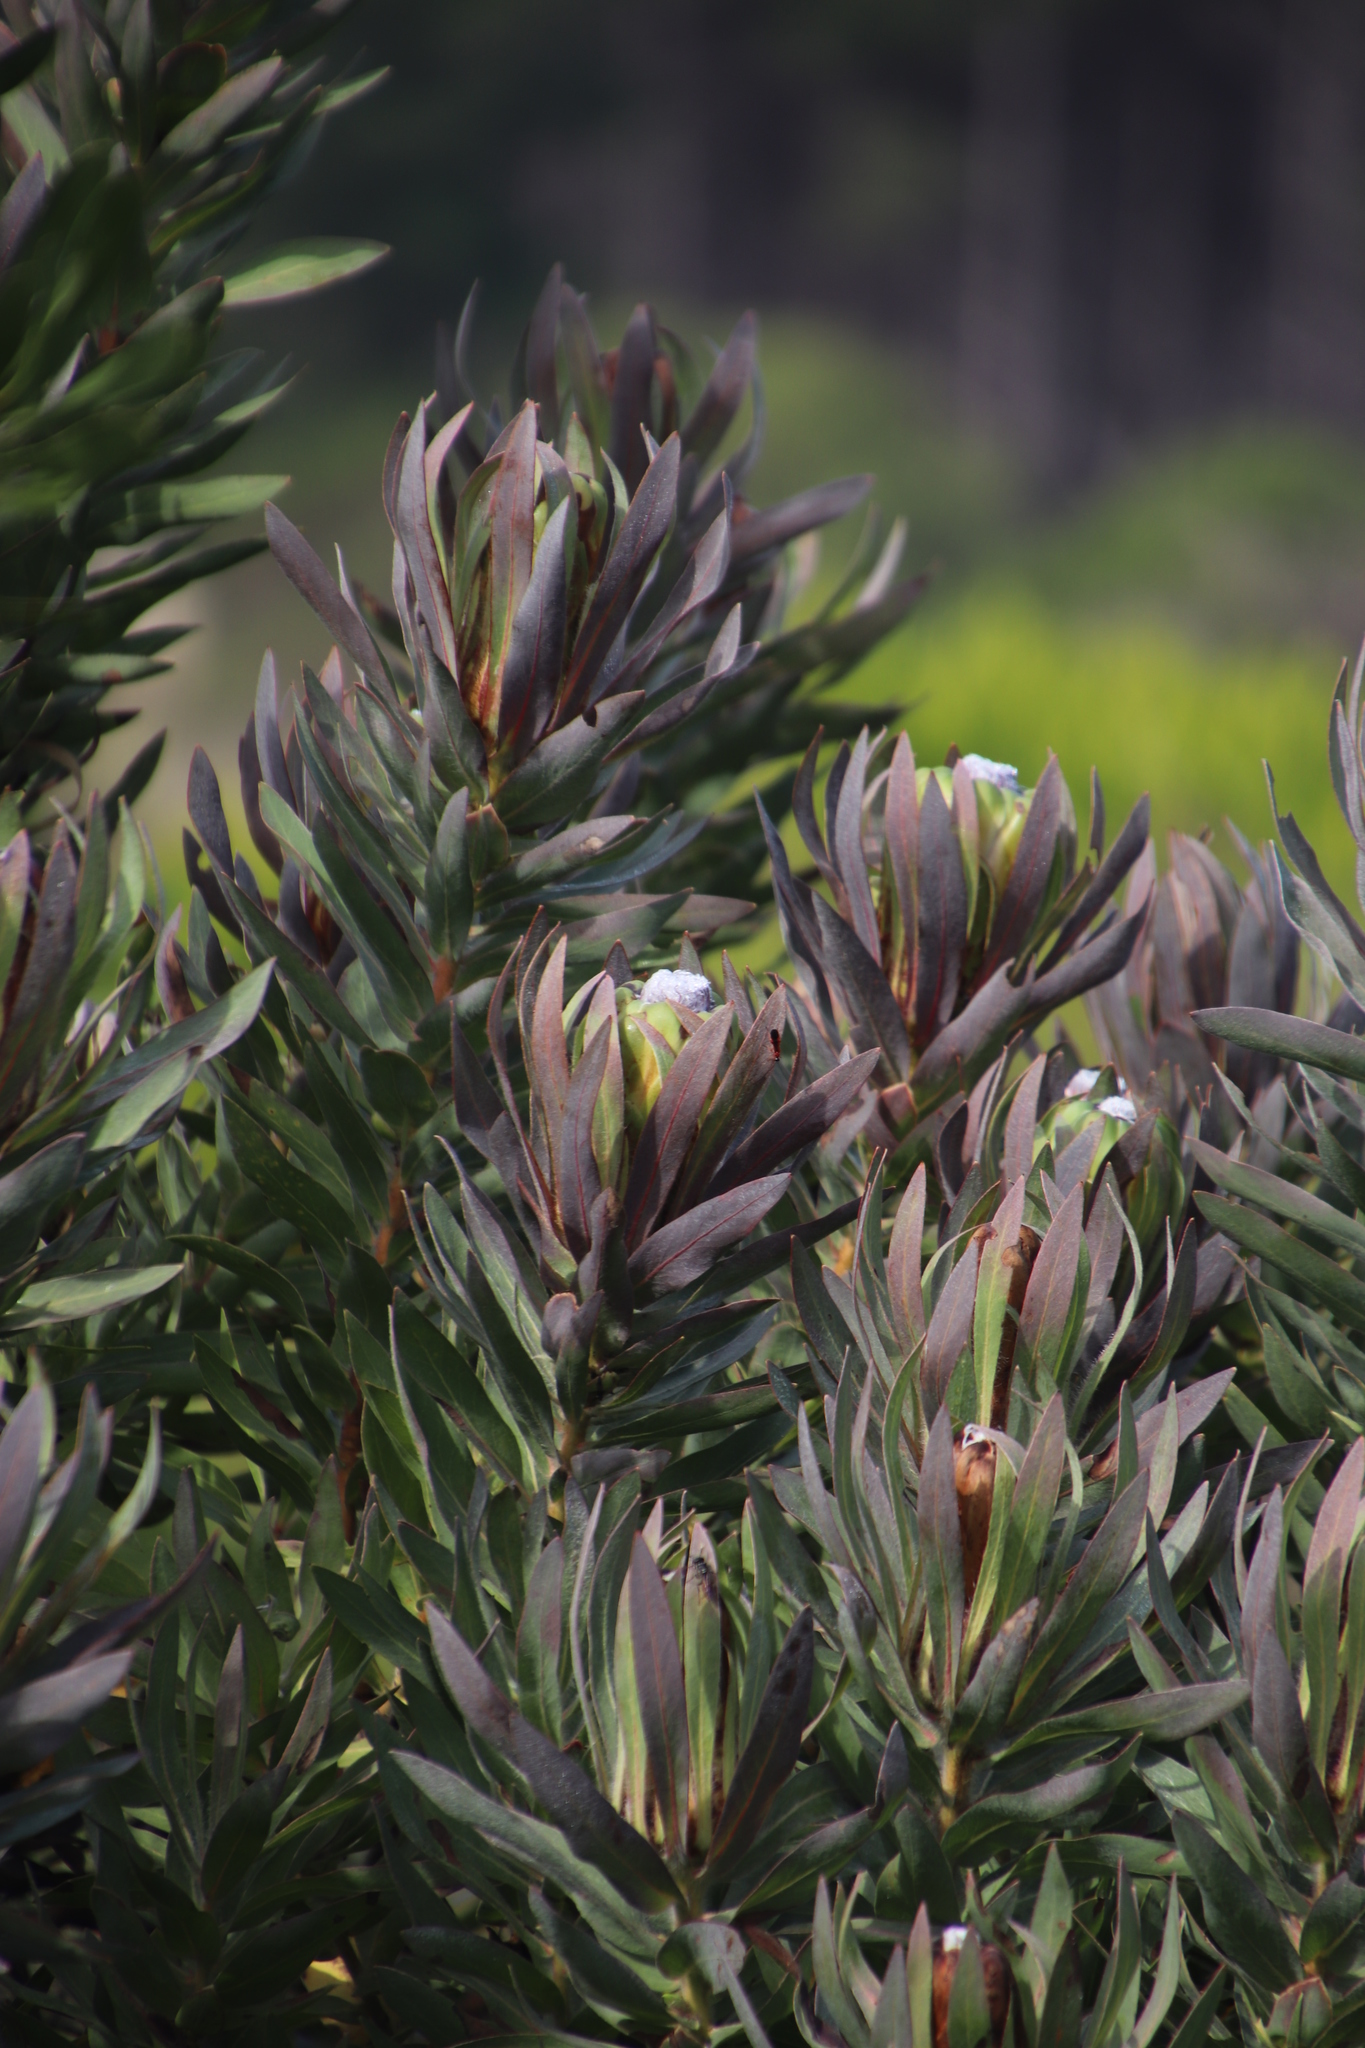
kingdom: Plantae
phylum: Tracheophyta
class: Magnoliopsida
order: Proteales
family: Proteaceae
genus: Protea
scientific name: Protea coronata
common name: Green sugarbush
